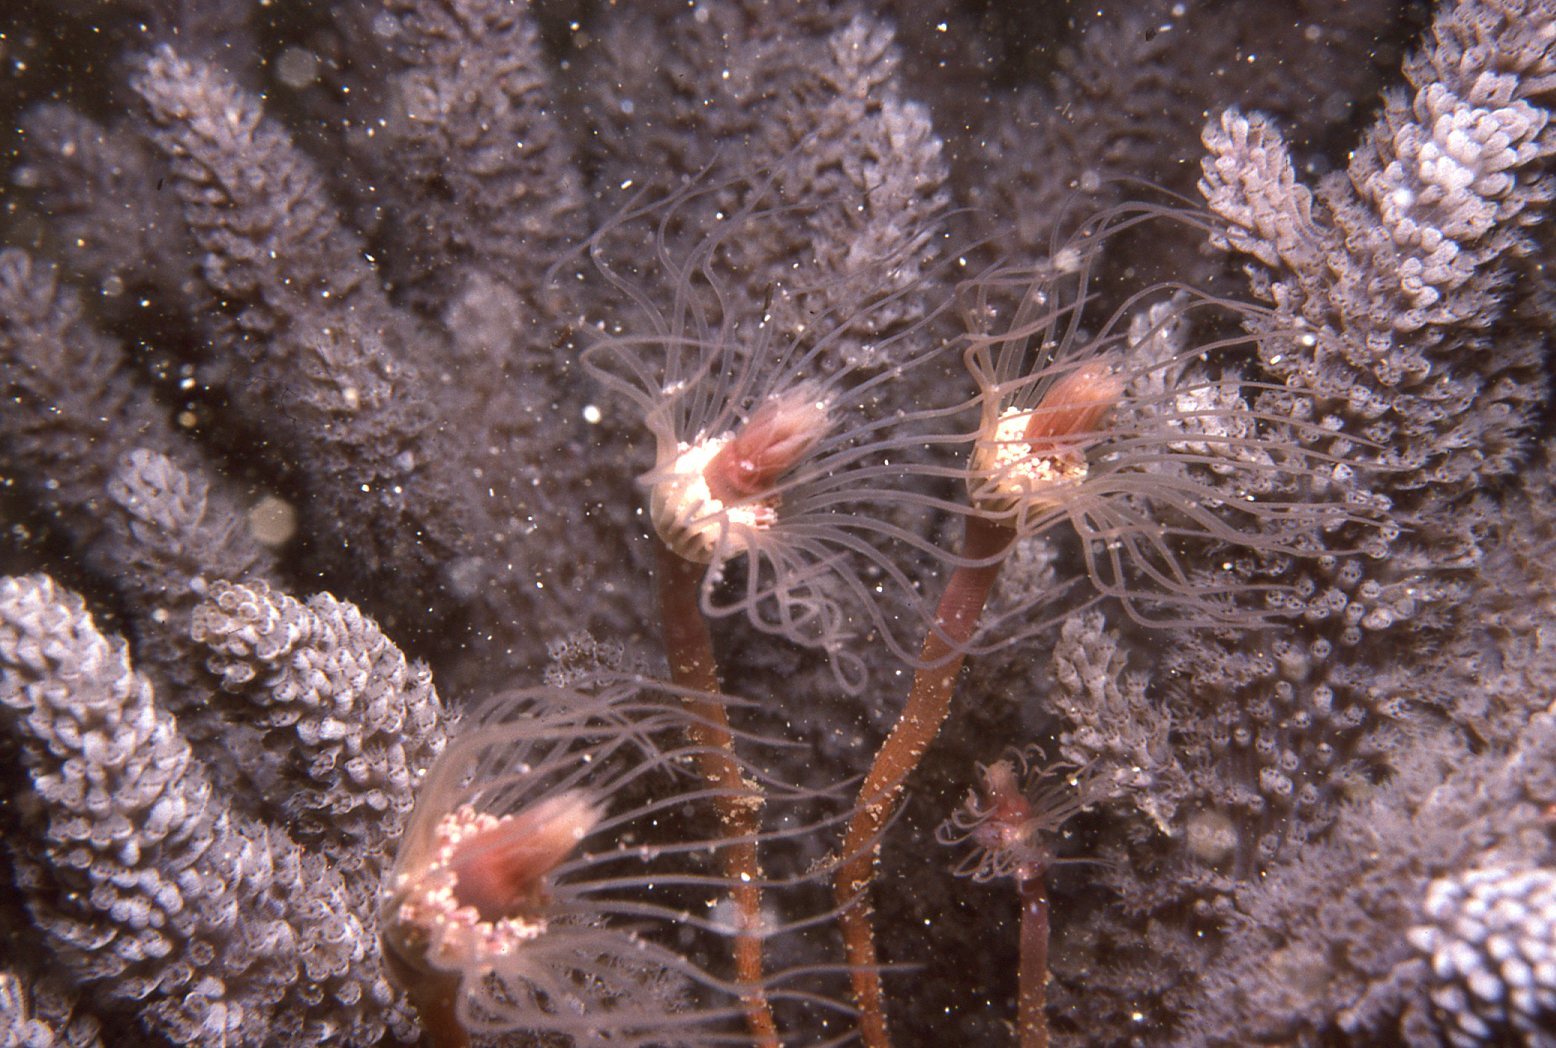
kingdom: Animalia
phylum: Cnidaria
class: Anthozoa
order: Malacalcyonacea
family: Capnellidae
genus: Capnella
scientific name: Capnella gaboensis
